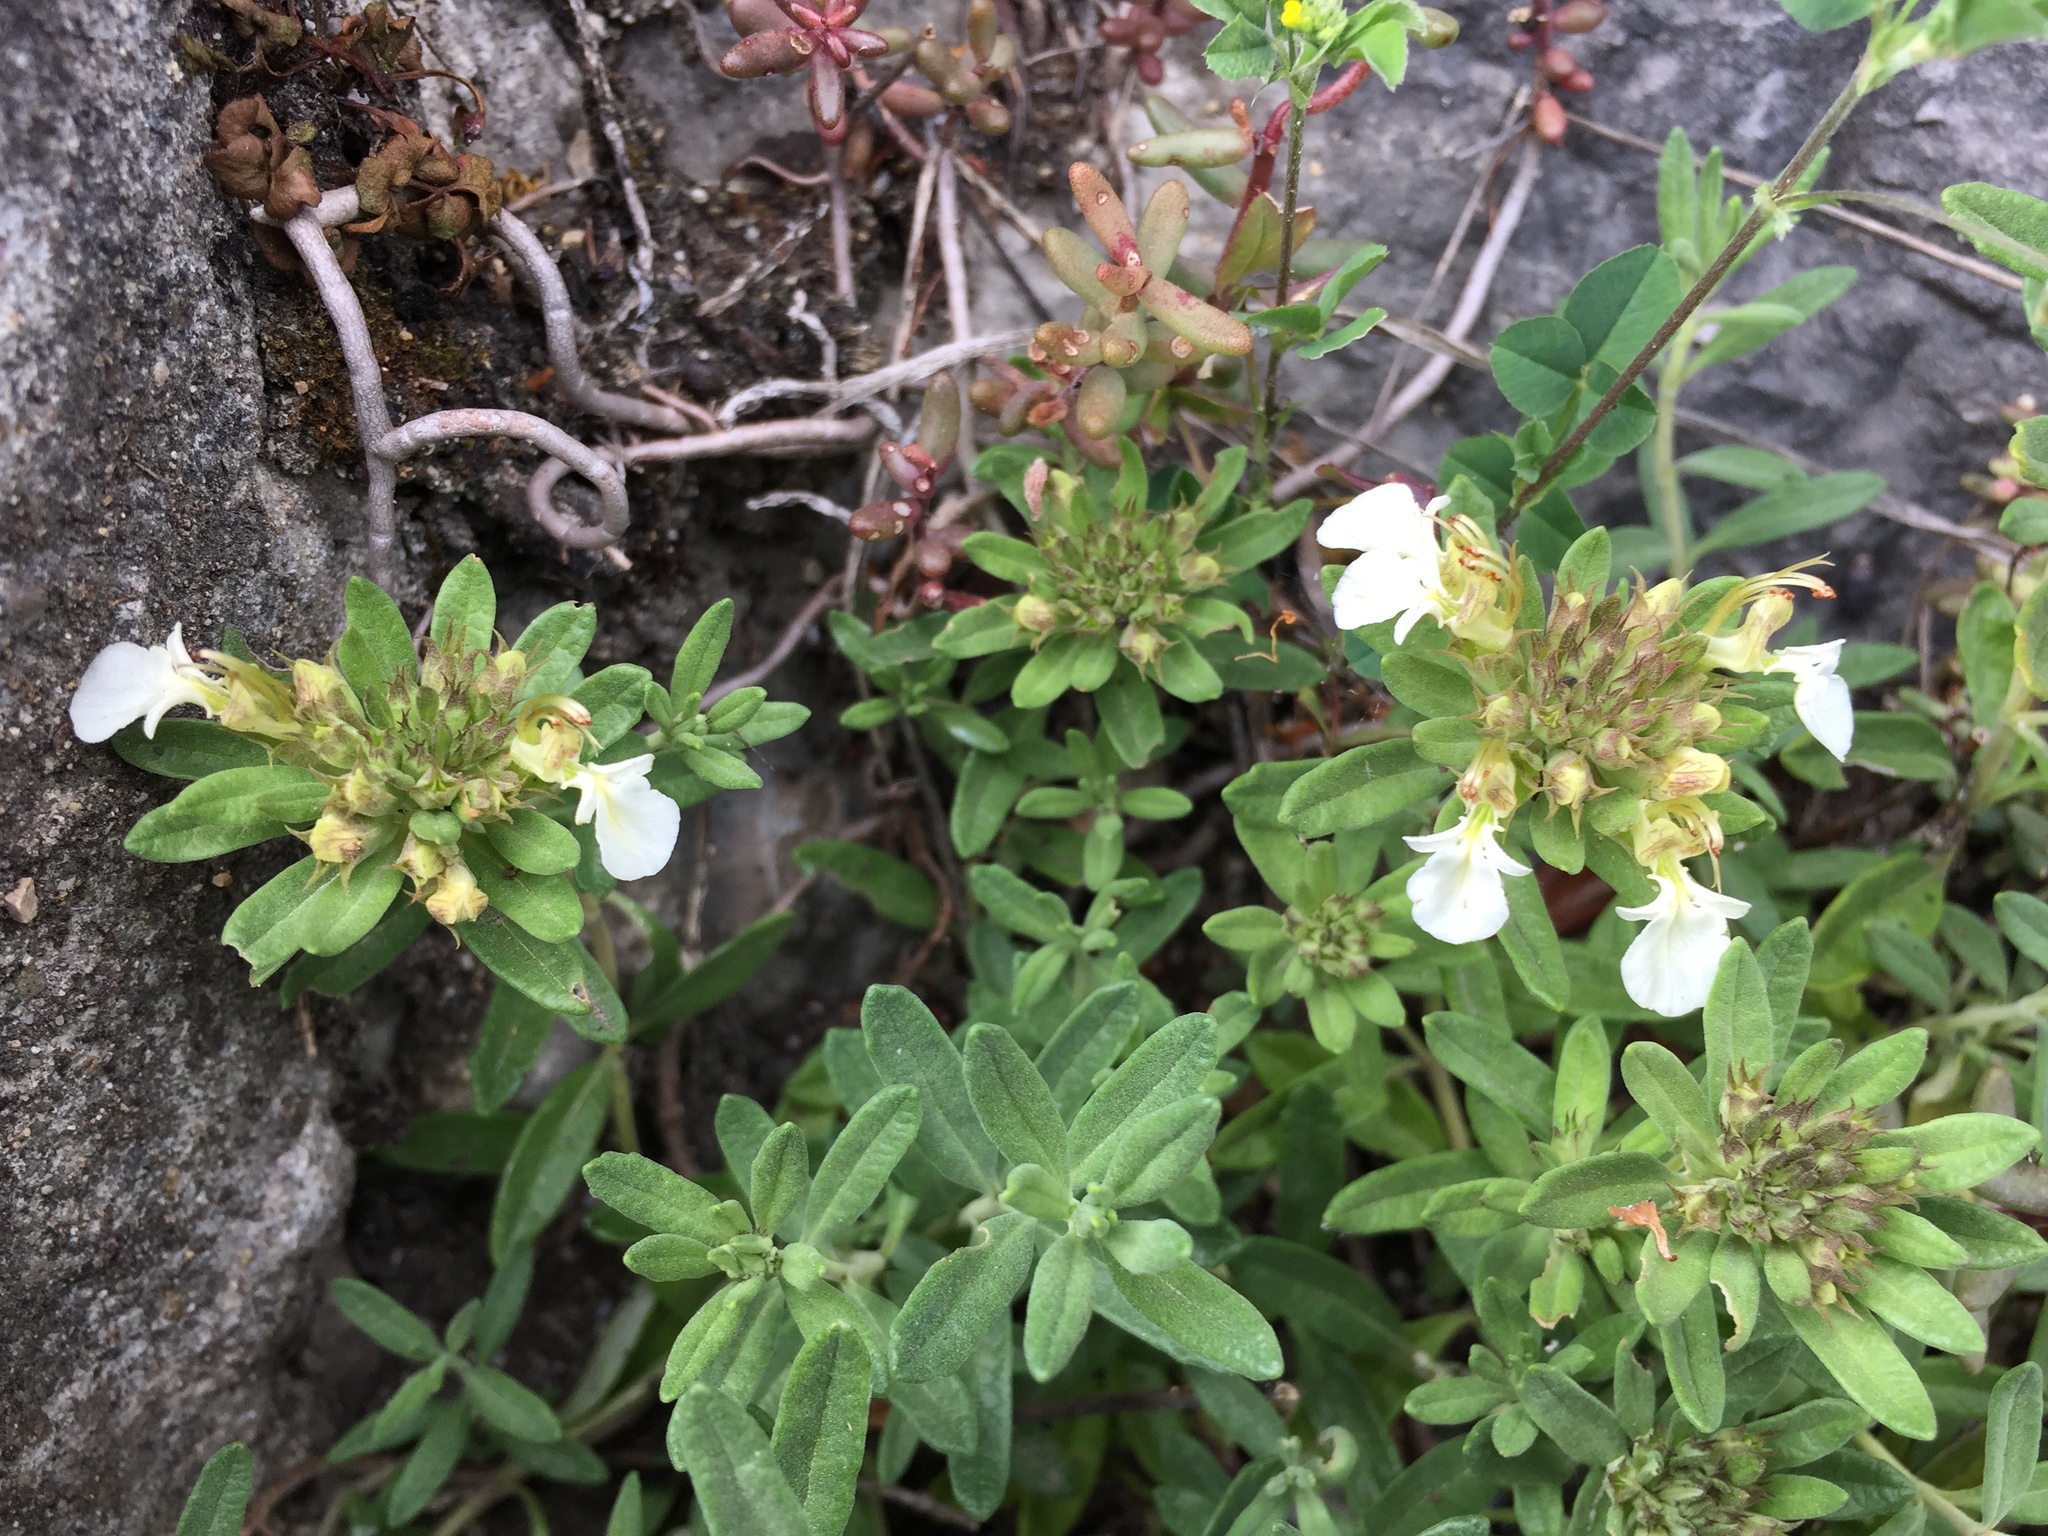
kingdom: Plantae
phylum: Tracheophyta
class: Magnoliopsida
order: Lamiales
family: Lamiaceae
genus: Teucrium
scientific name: Teucrium montanum
